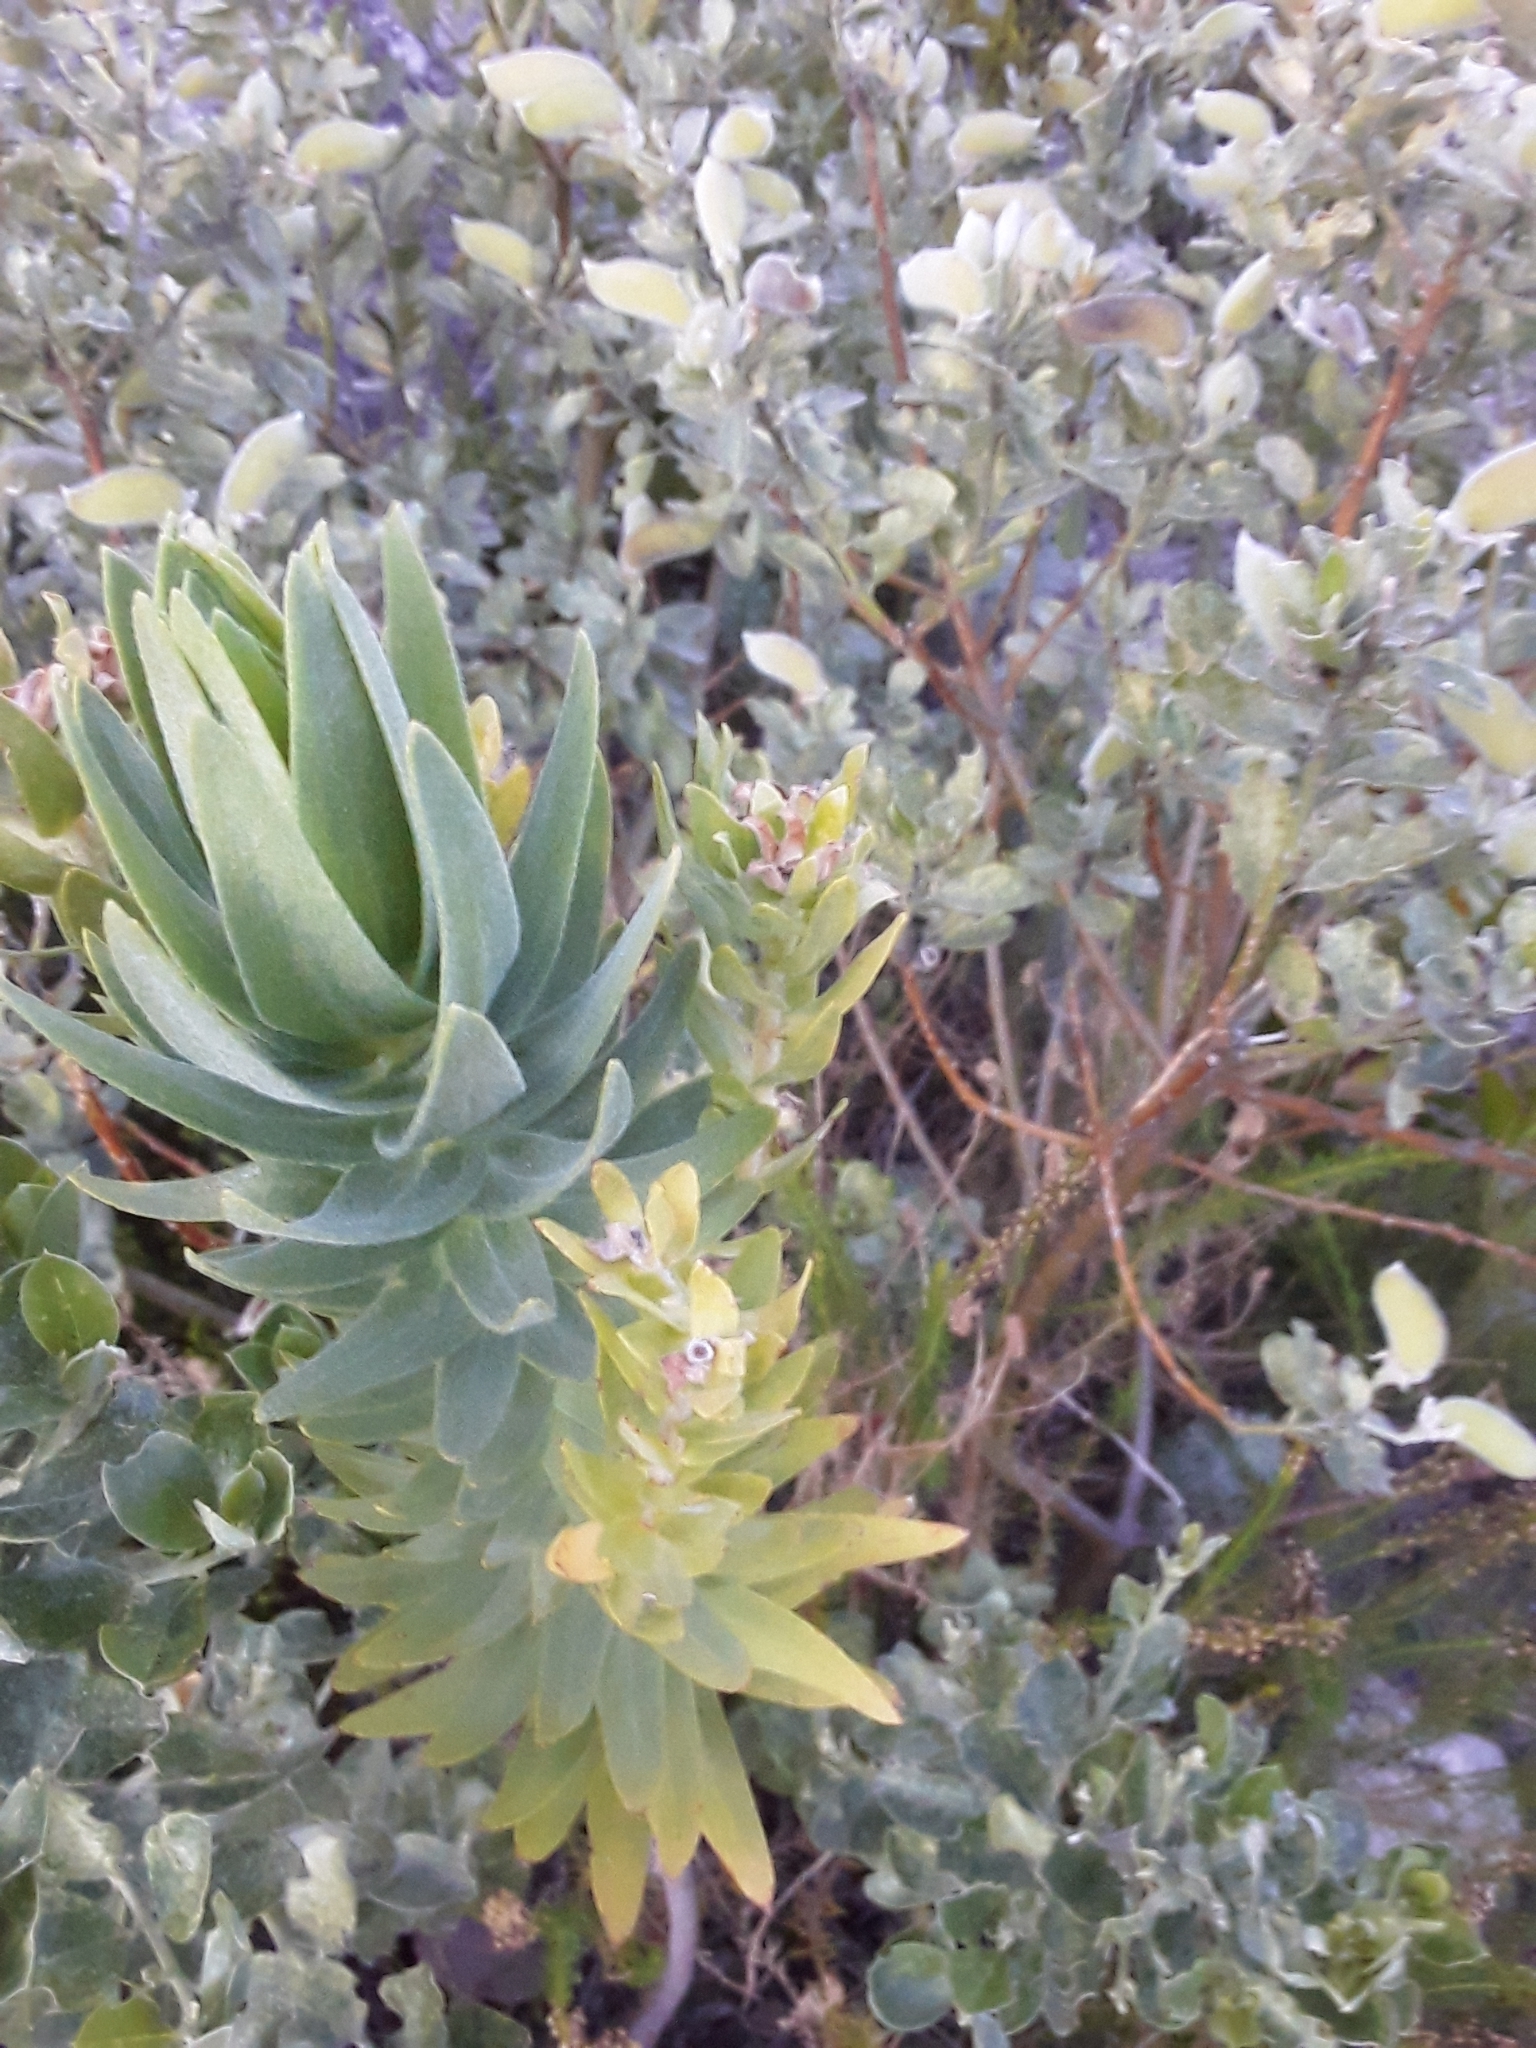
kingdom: Plantae
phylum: Tracheophyta
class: Magnoliopsida
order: Asterales
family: Asteraceae
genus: Osmitopsis
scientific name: Osmitopsis asteriscoides
